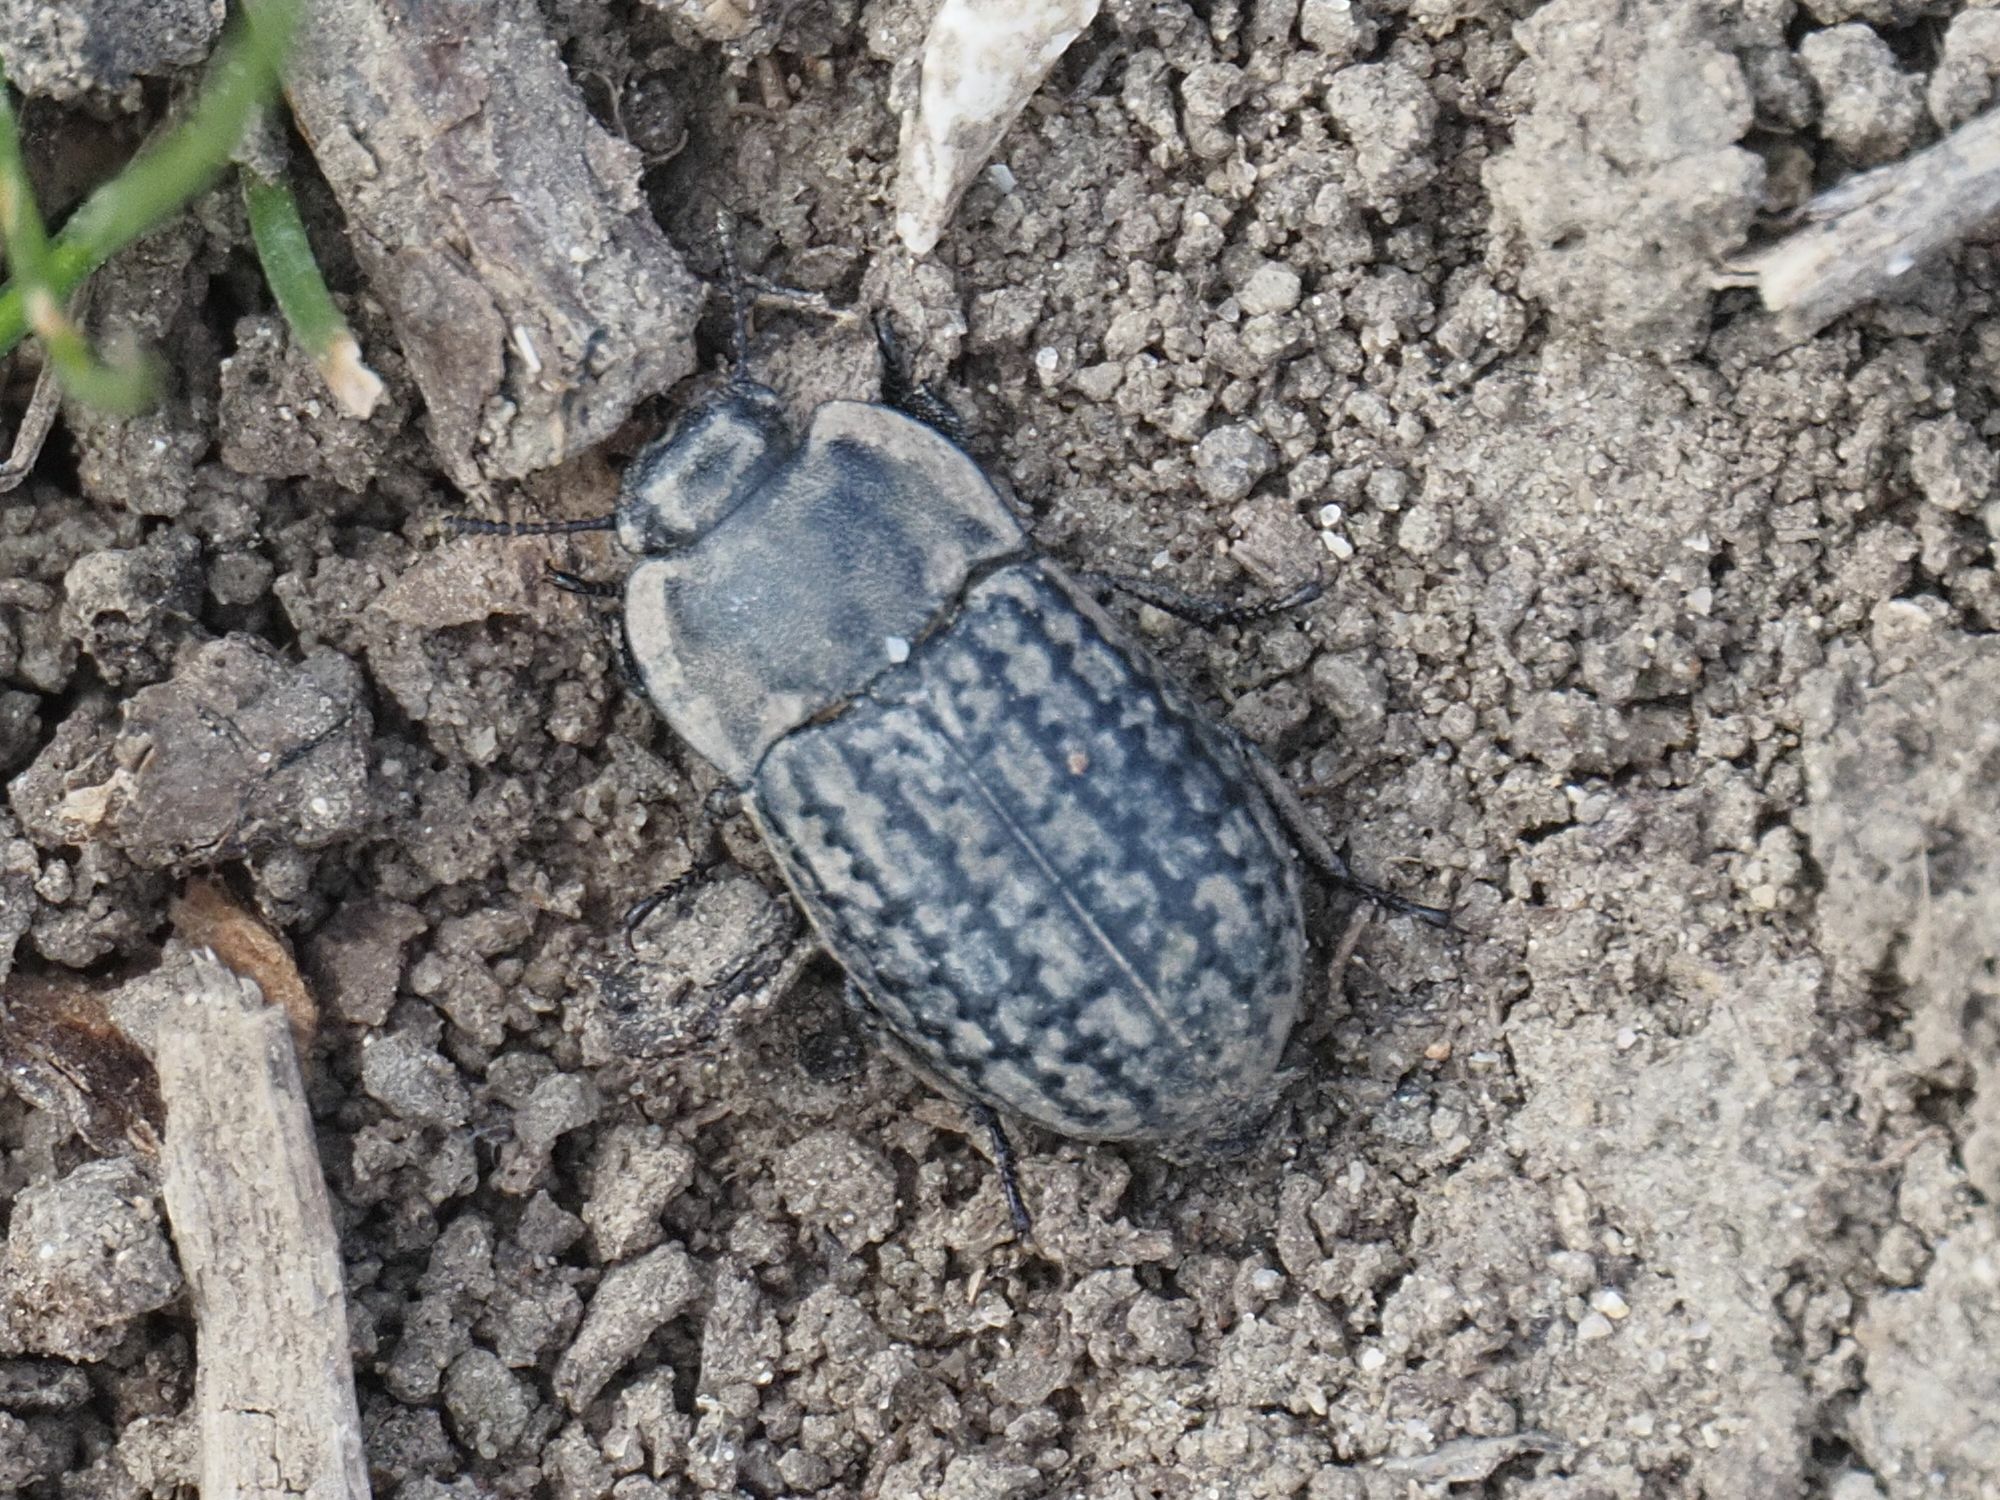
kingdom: Animalia
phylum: Arthropoda
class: Insecta
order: Coleoptera
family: Tenebrionidae
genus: Opatrum
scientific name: Opatrum sabulosum
